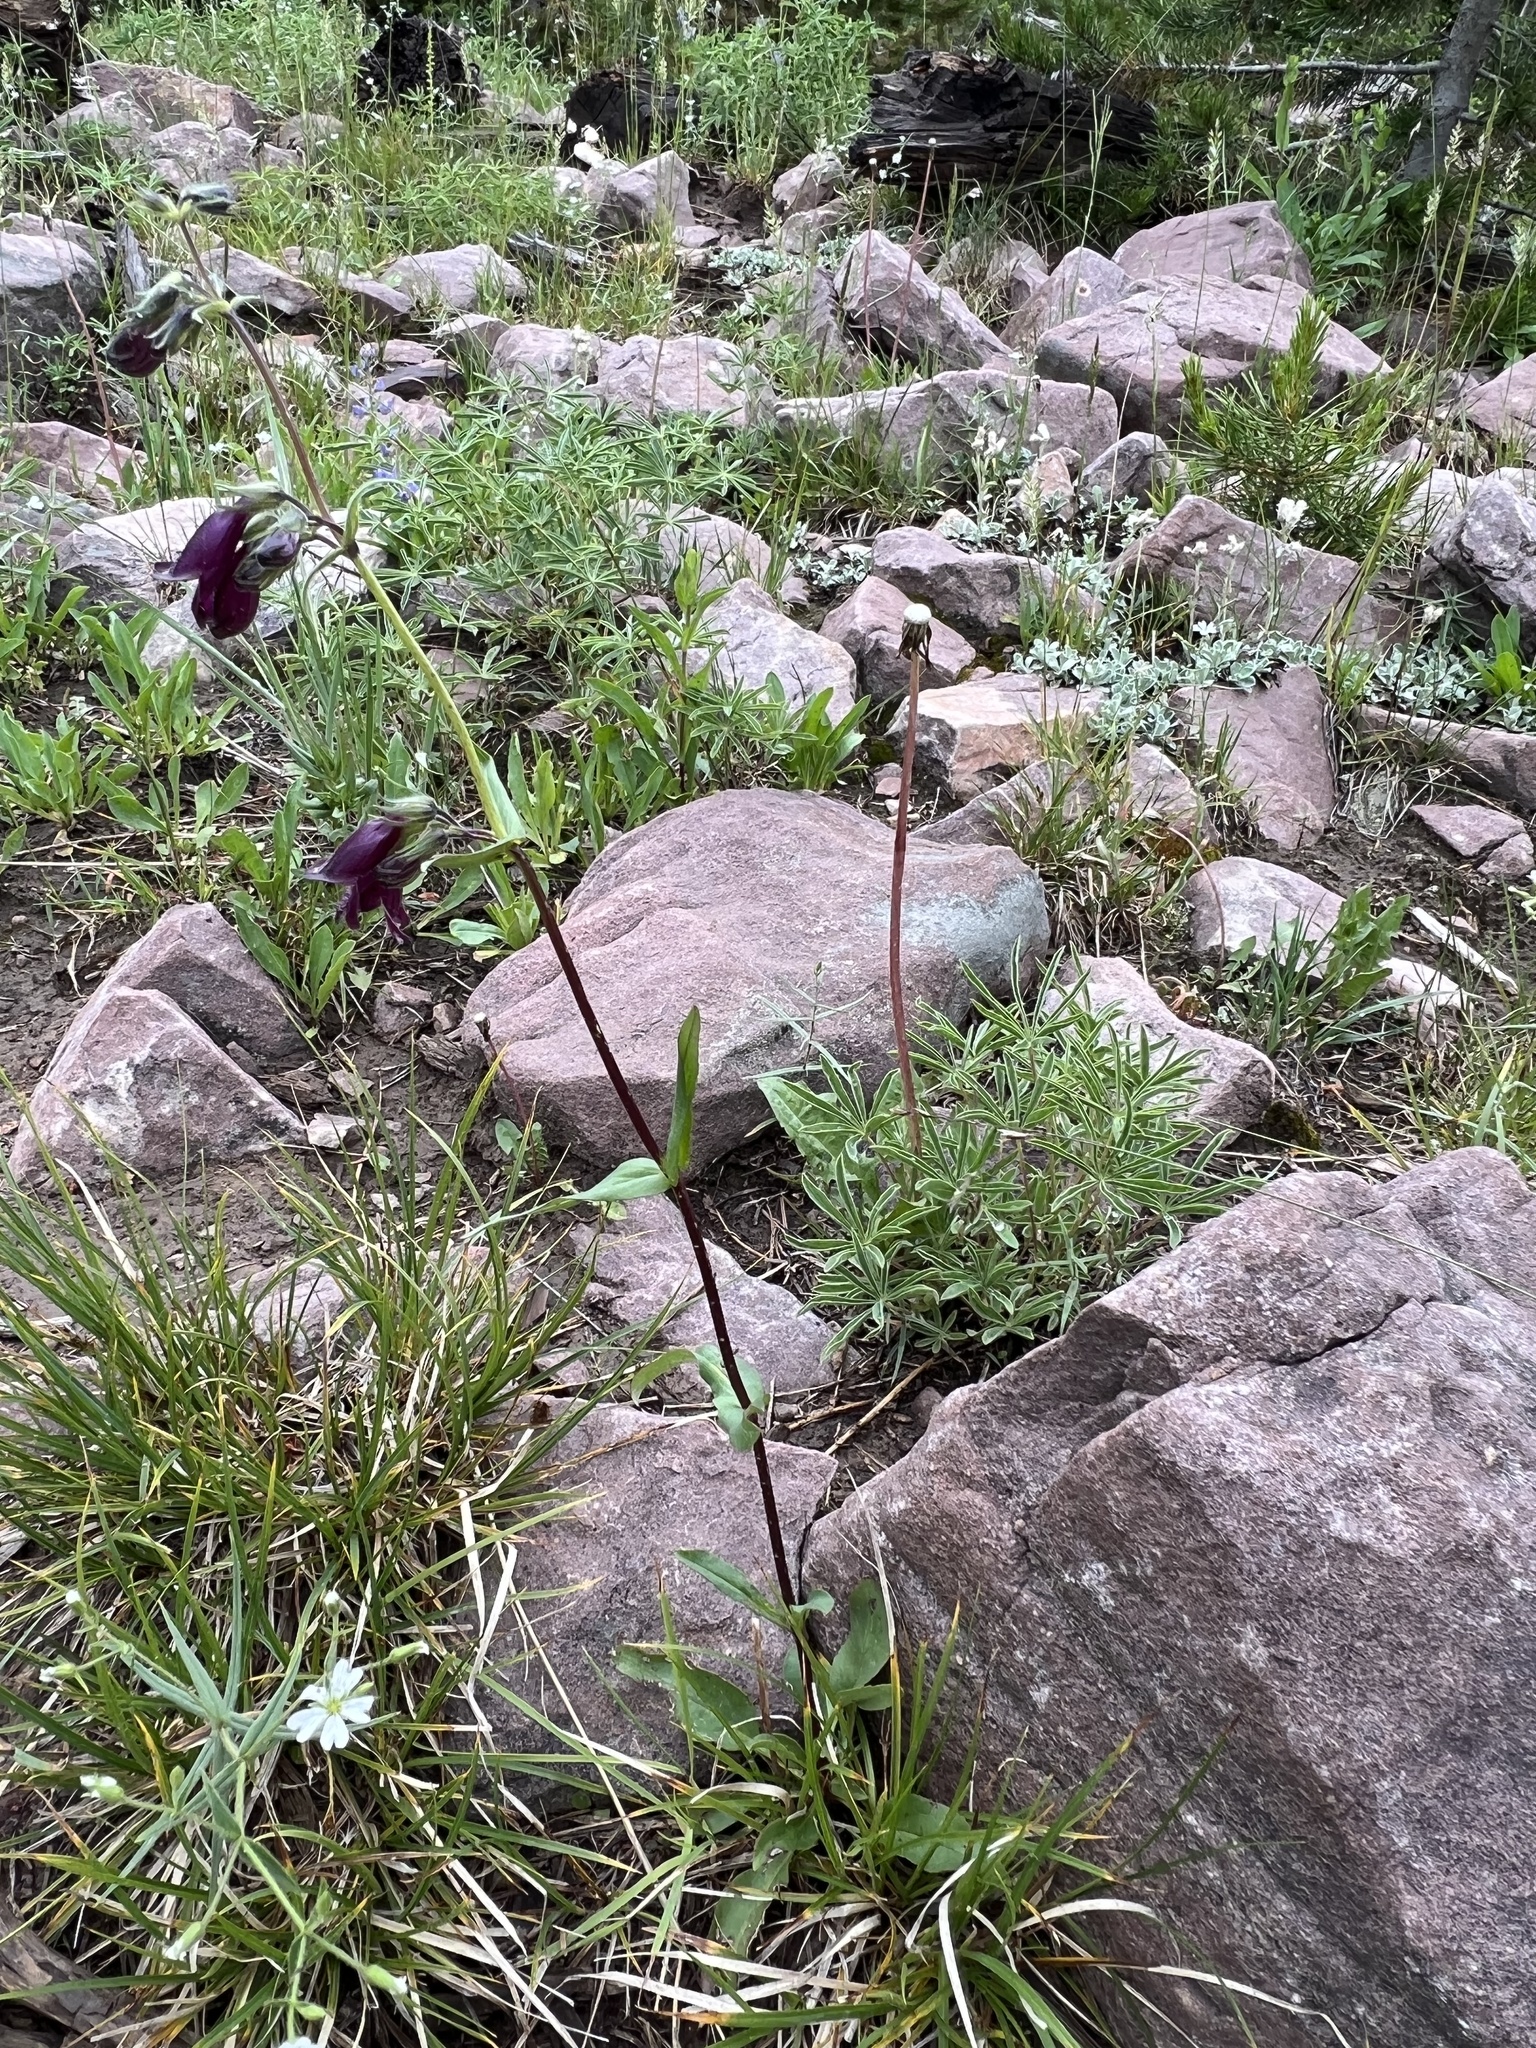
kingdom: Plantae
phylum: Tracheophyta
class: Magnoliopsida
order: Lamiales
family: Plantaginaceae
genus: Penstemon
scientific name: Penstemon whippleanus
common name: Whipple's penstemon
